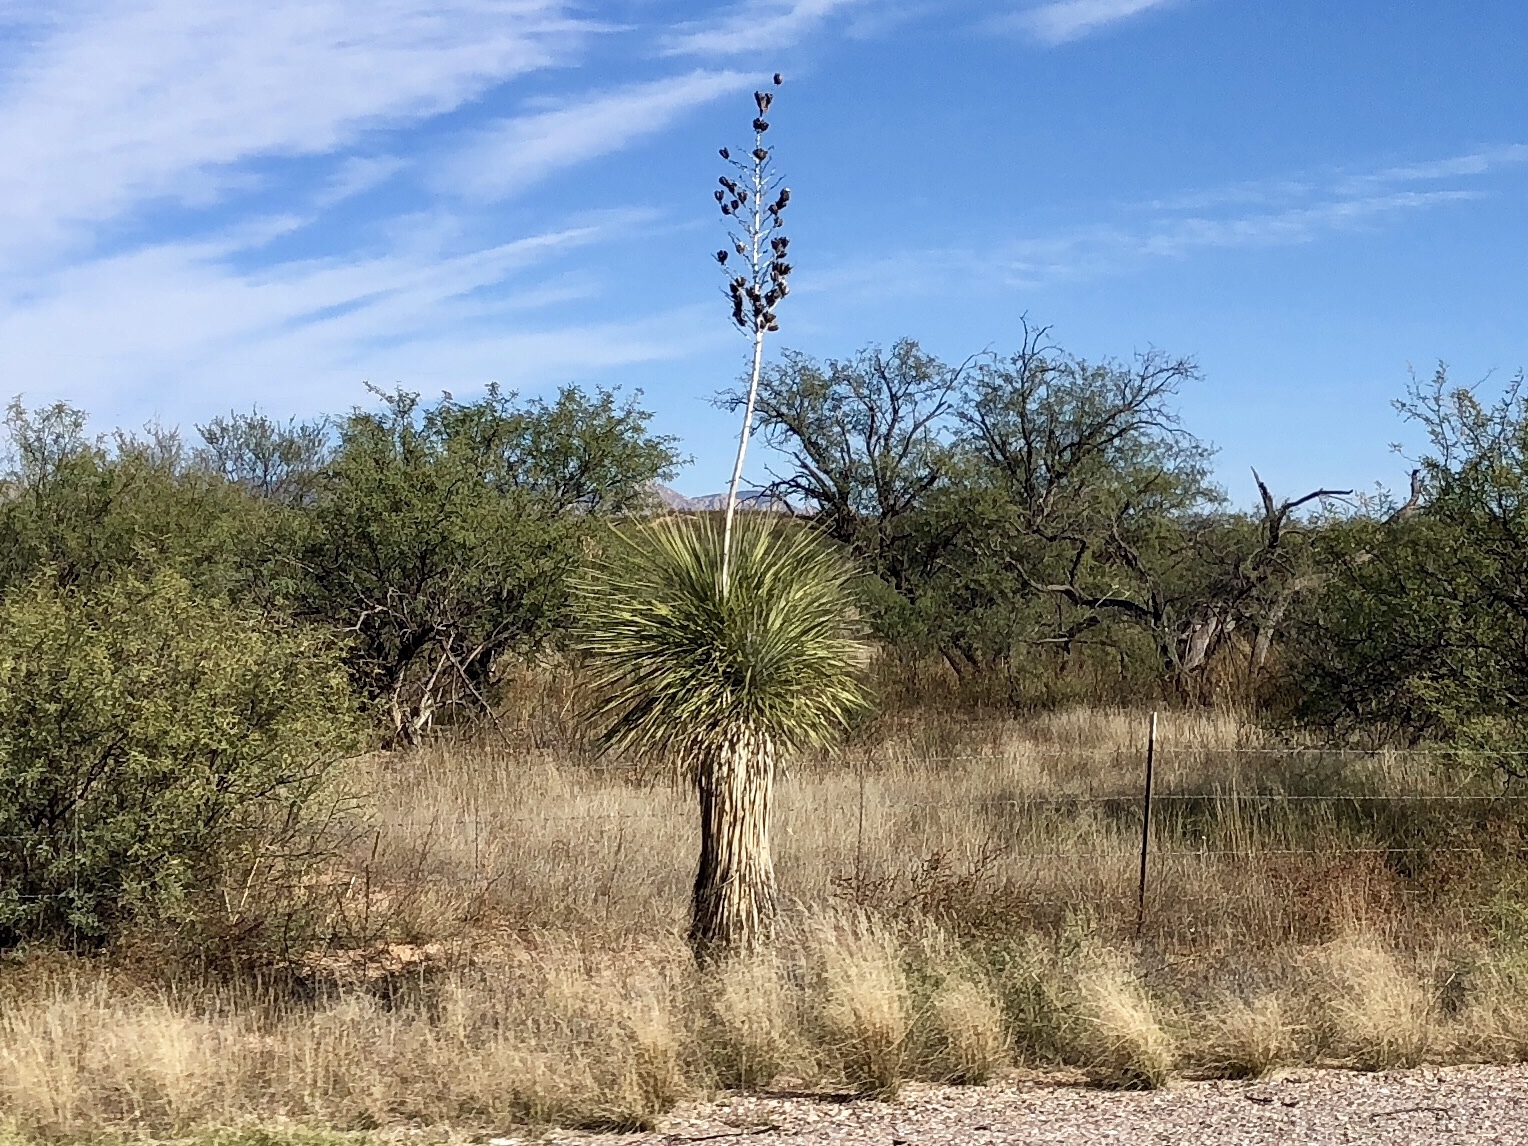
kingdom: Plantae
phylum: Tracheophyta
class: Liliopsida
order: Asparagales
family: Asparagaceae
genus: Yucca
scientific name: Yucca elata
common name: Palmella
